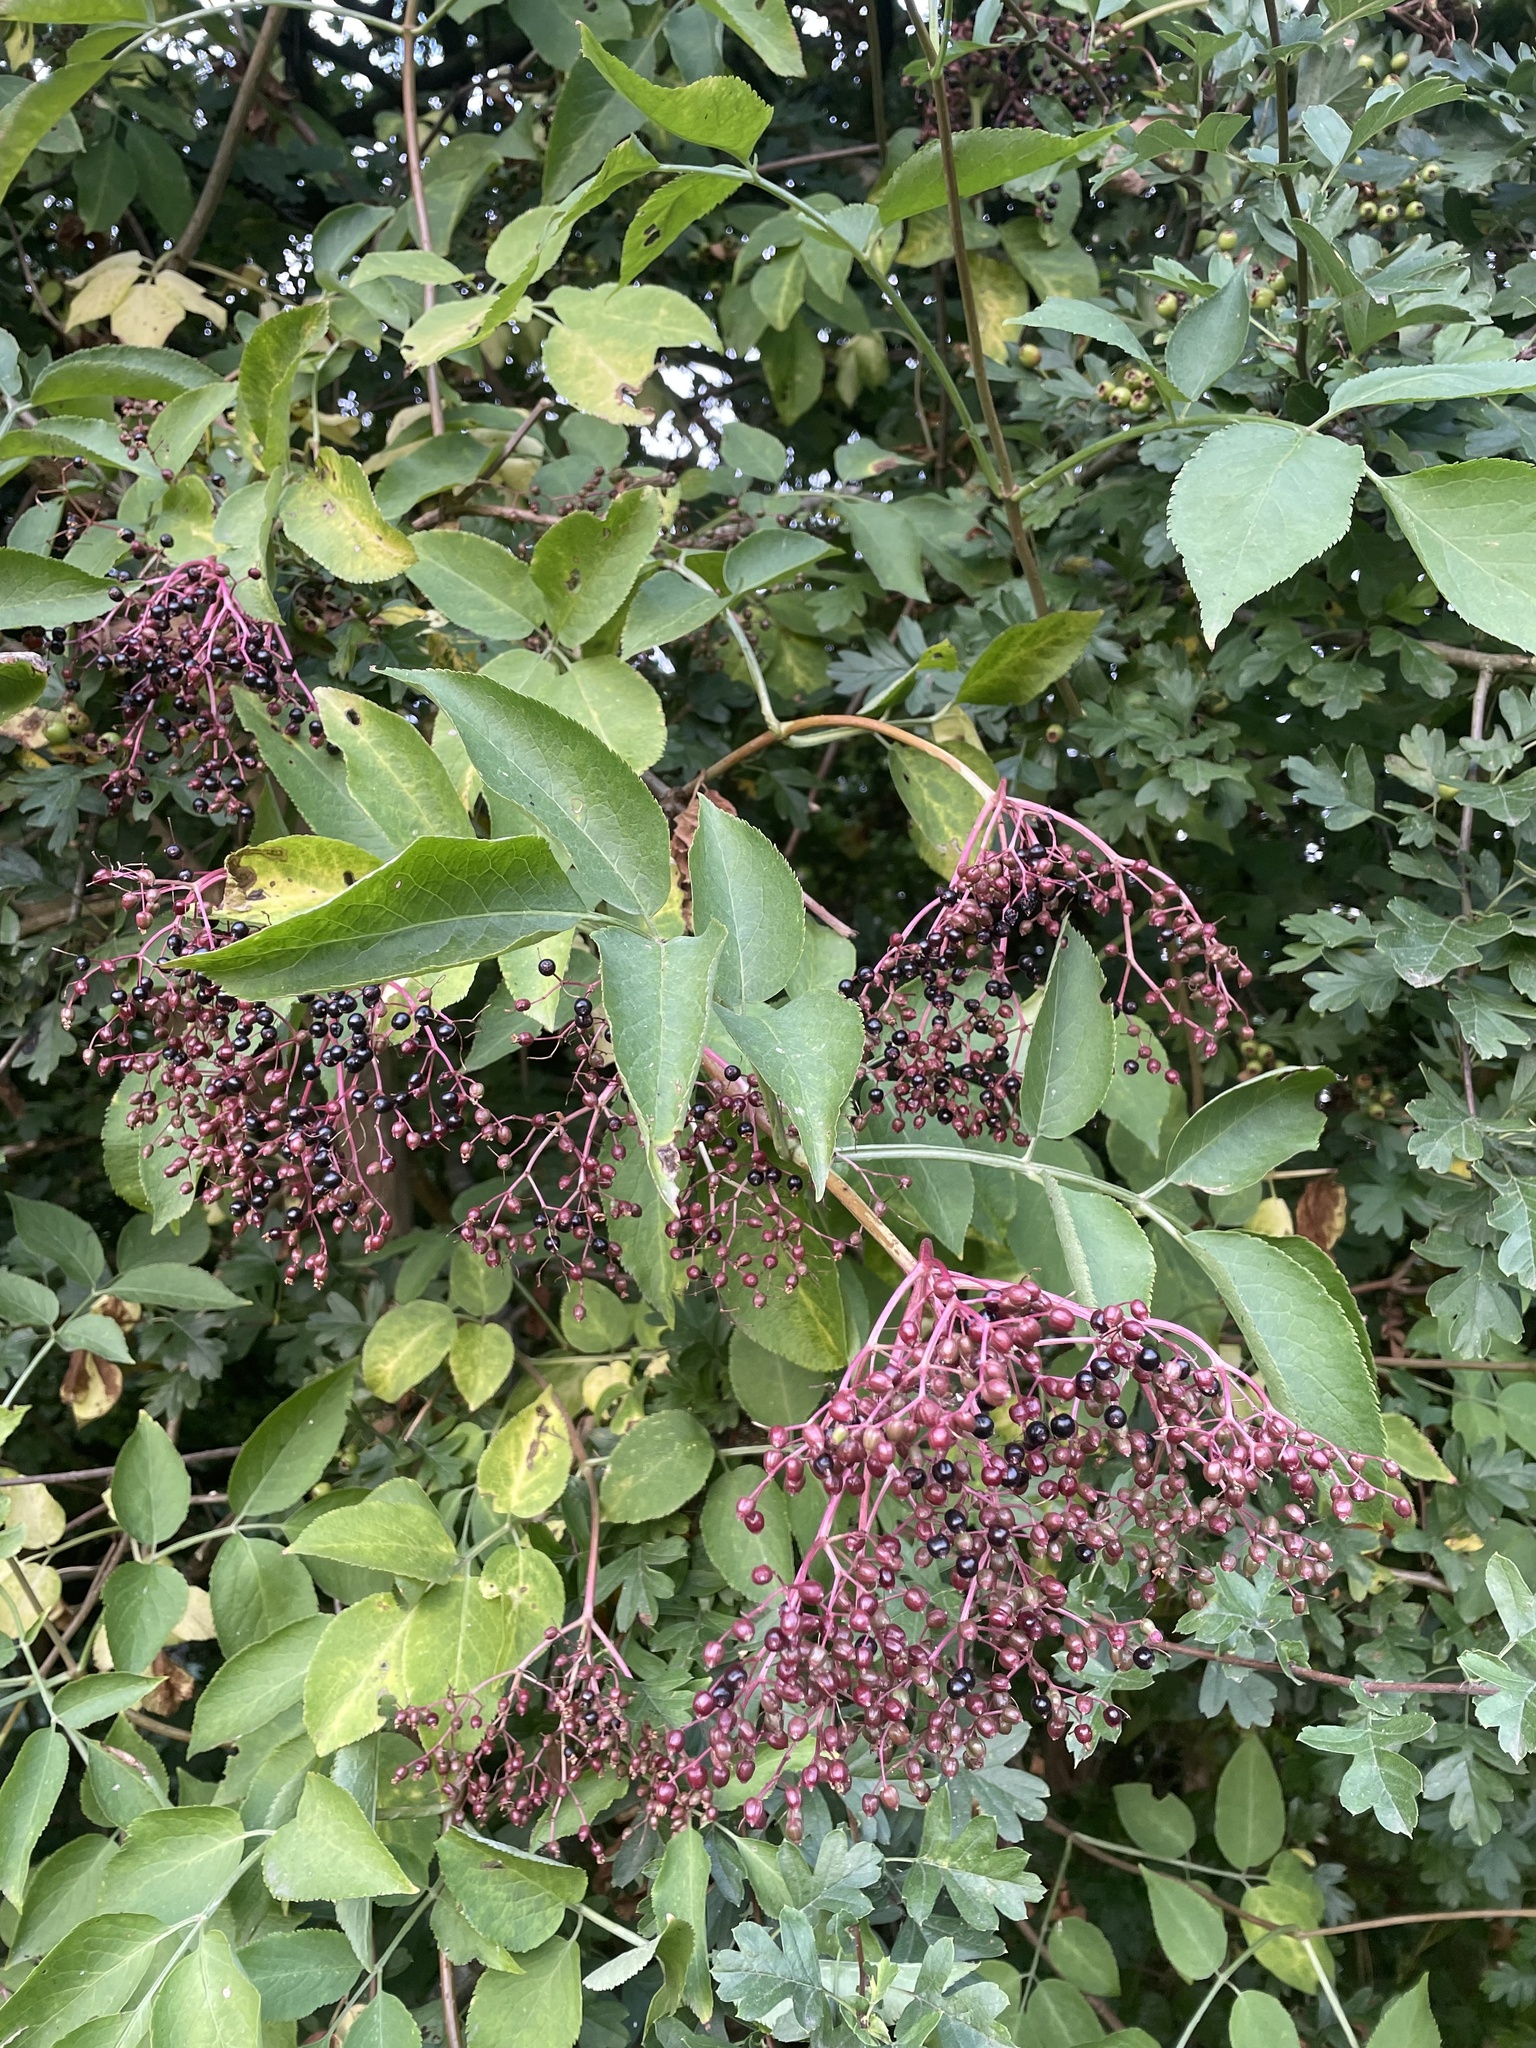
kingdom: Plantae
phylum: Tracheophyta
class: Magnoliopsida
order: Dipsacales
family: Viburnaceae
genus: Sambucus
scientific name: Sambucus nigra
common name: Elder
